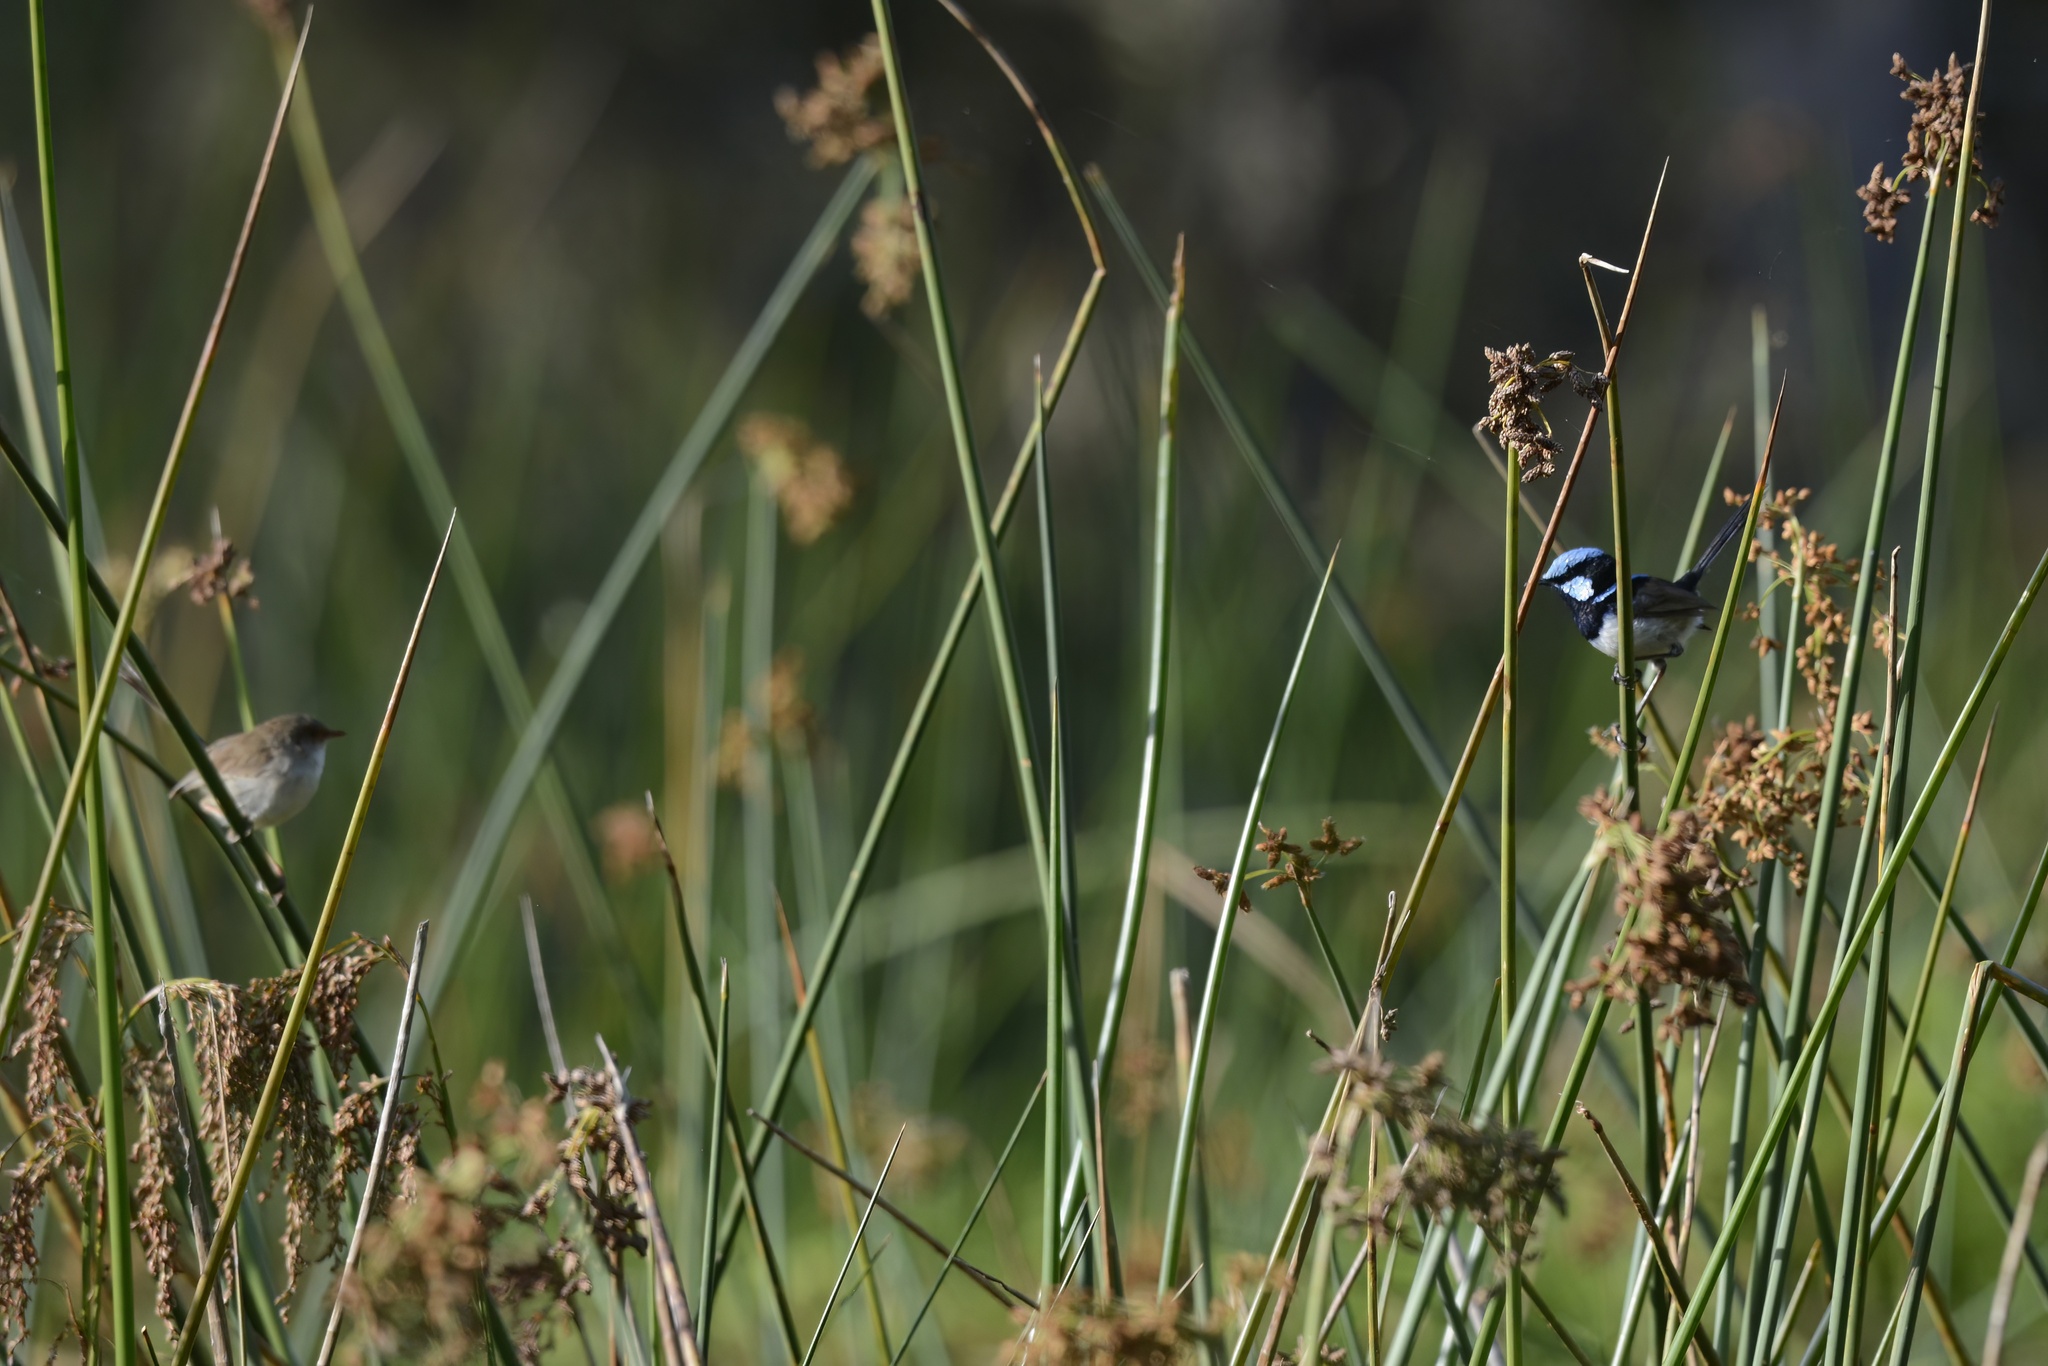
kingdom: Animalia
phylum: Chordata
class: Aves
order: Passeriformes
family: Maluridae
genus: Malurus
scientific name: Malurus cyaneus
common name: Superb fairywren
